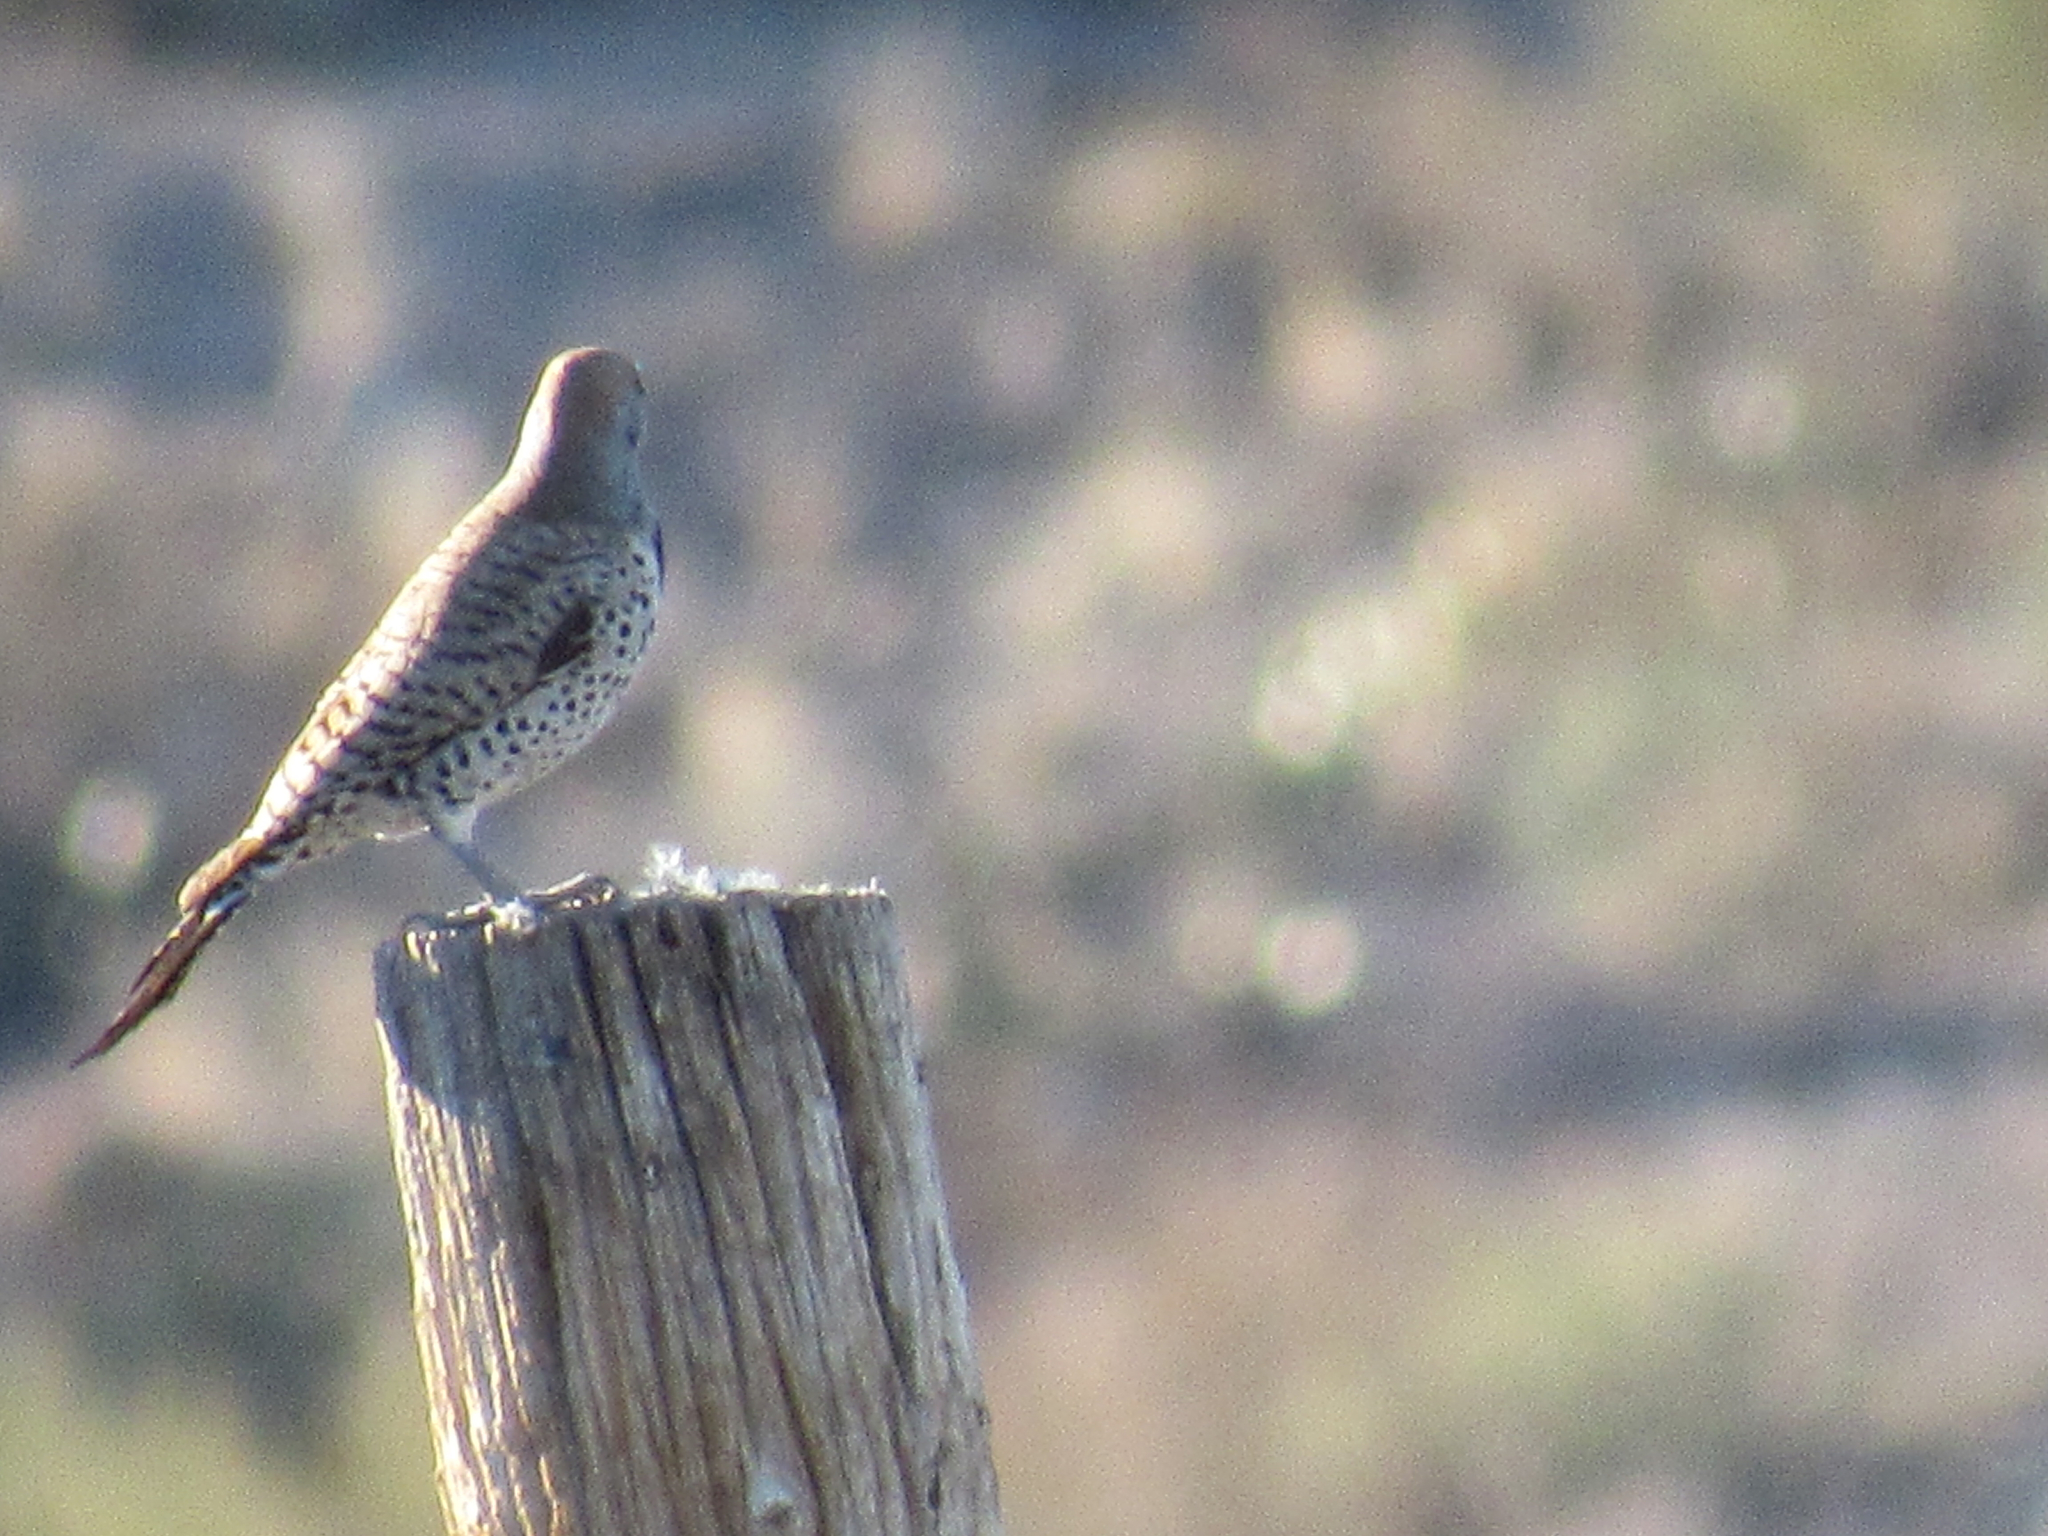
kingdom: Animalia
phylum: Chordata
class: Aves
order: Piciformes
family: Picidae
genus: Colaptes
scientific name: Colaptes chrysoides
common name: Gilded flicker
